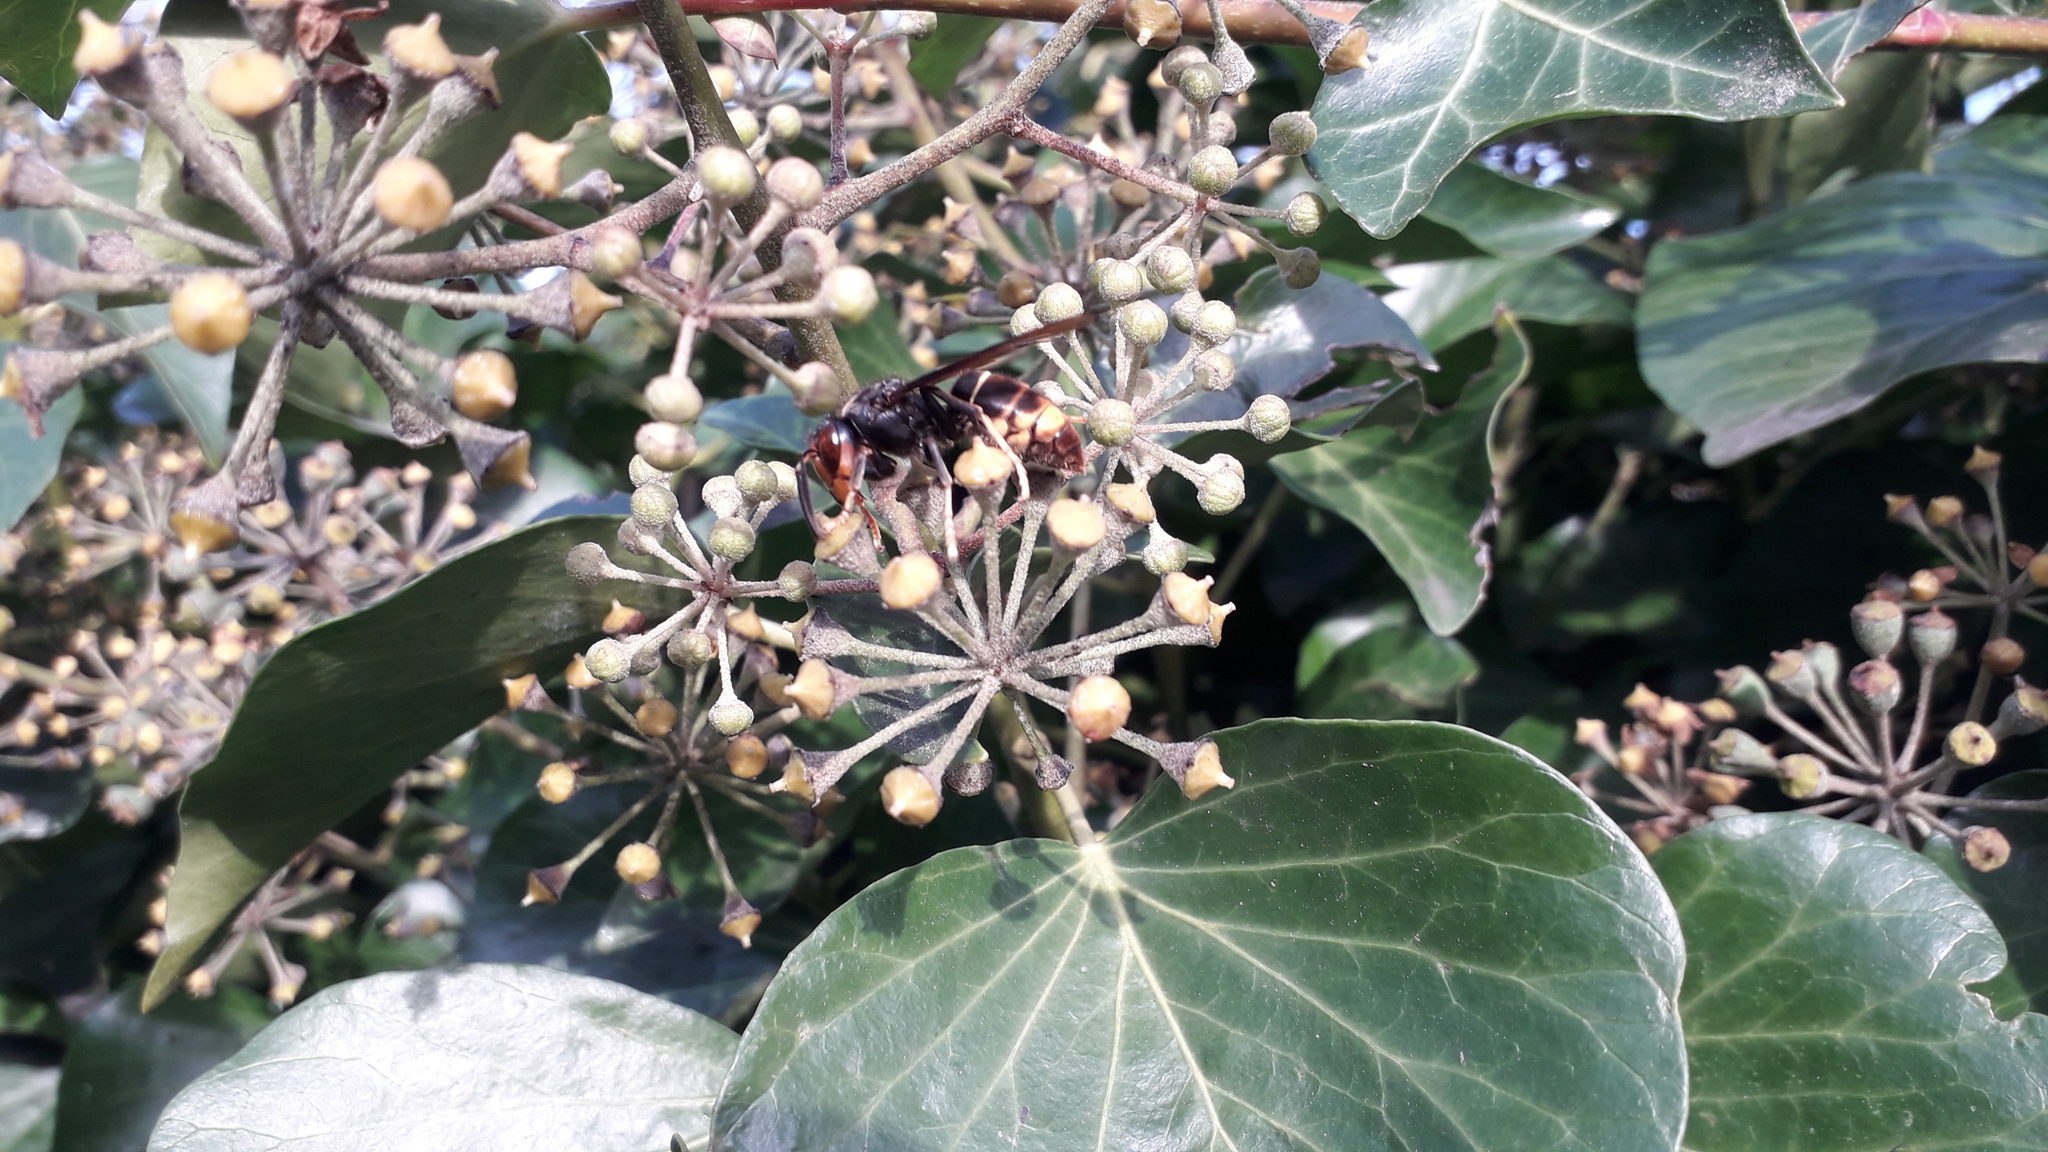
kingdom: Animalia
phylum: Arthropoda
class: Insecta
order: Hymenoptera
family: Vespidae
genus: Vespa
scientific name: Vespa velutina
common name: Asian hornet
